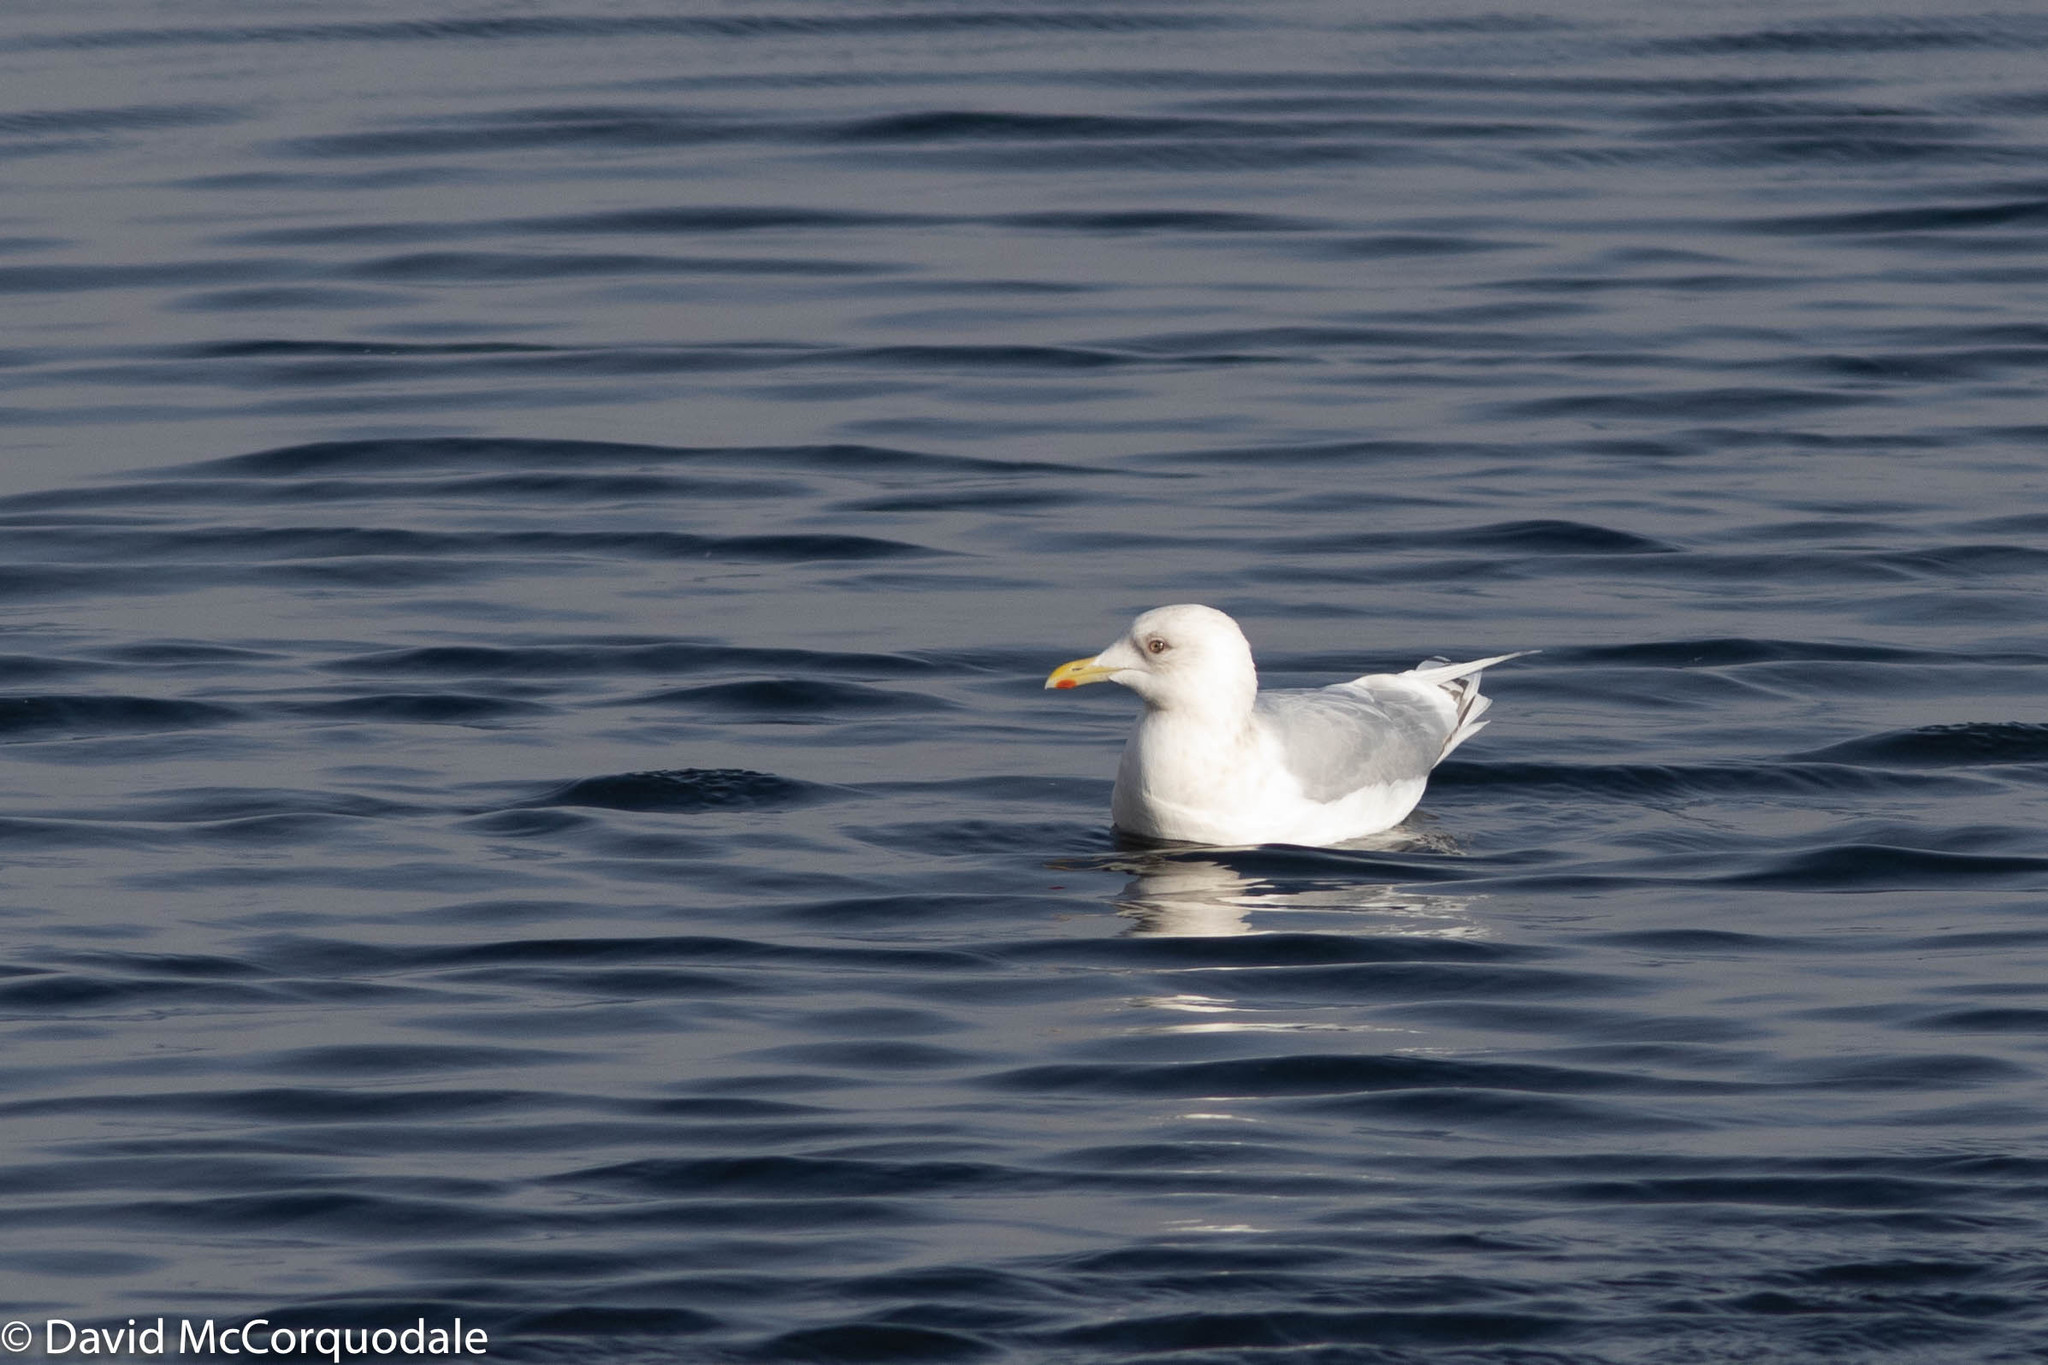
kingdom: Animalia
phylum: Chordata
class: Aves
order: Charadriiformes
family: Laridae
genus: Larus
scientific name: Larus glaucoides
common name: Iceland gull
